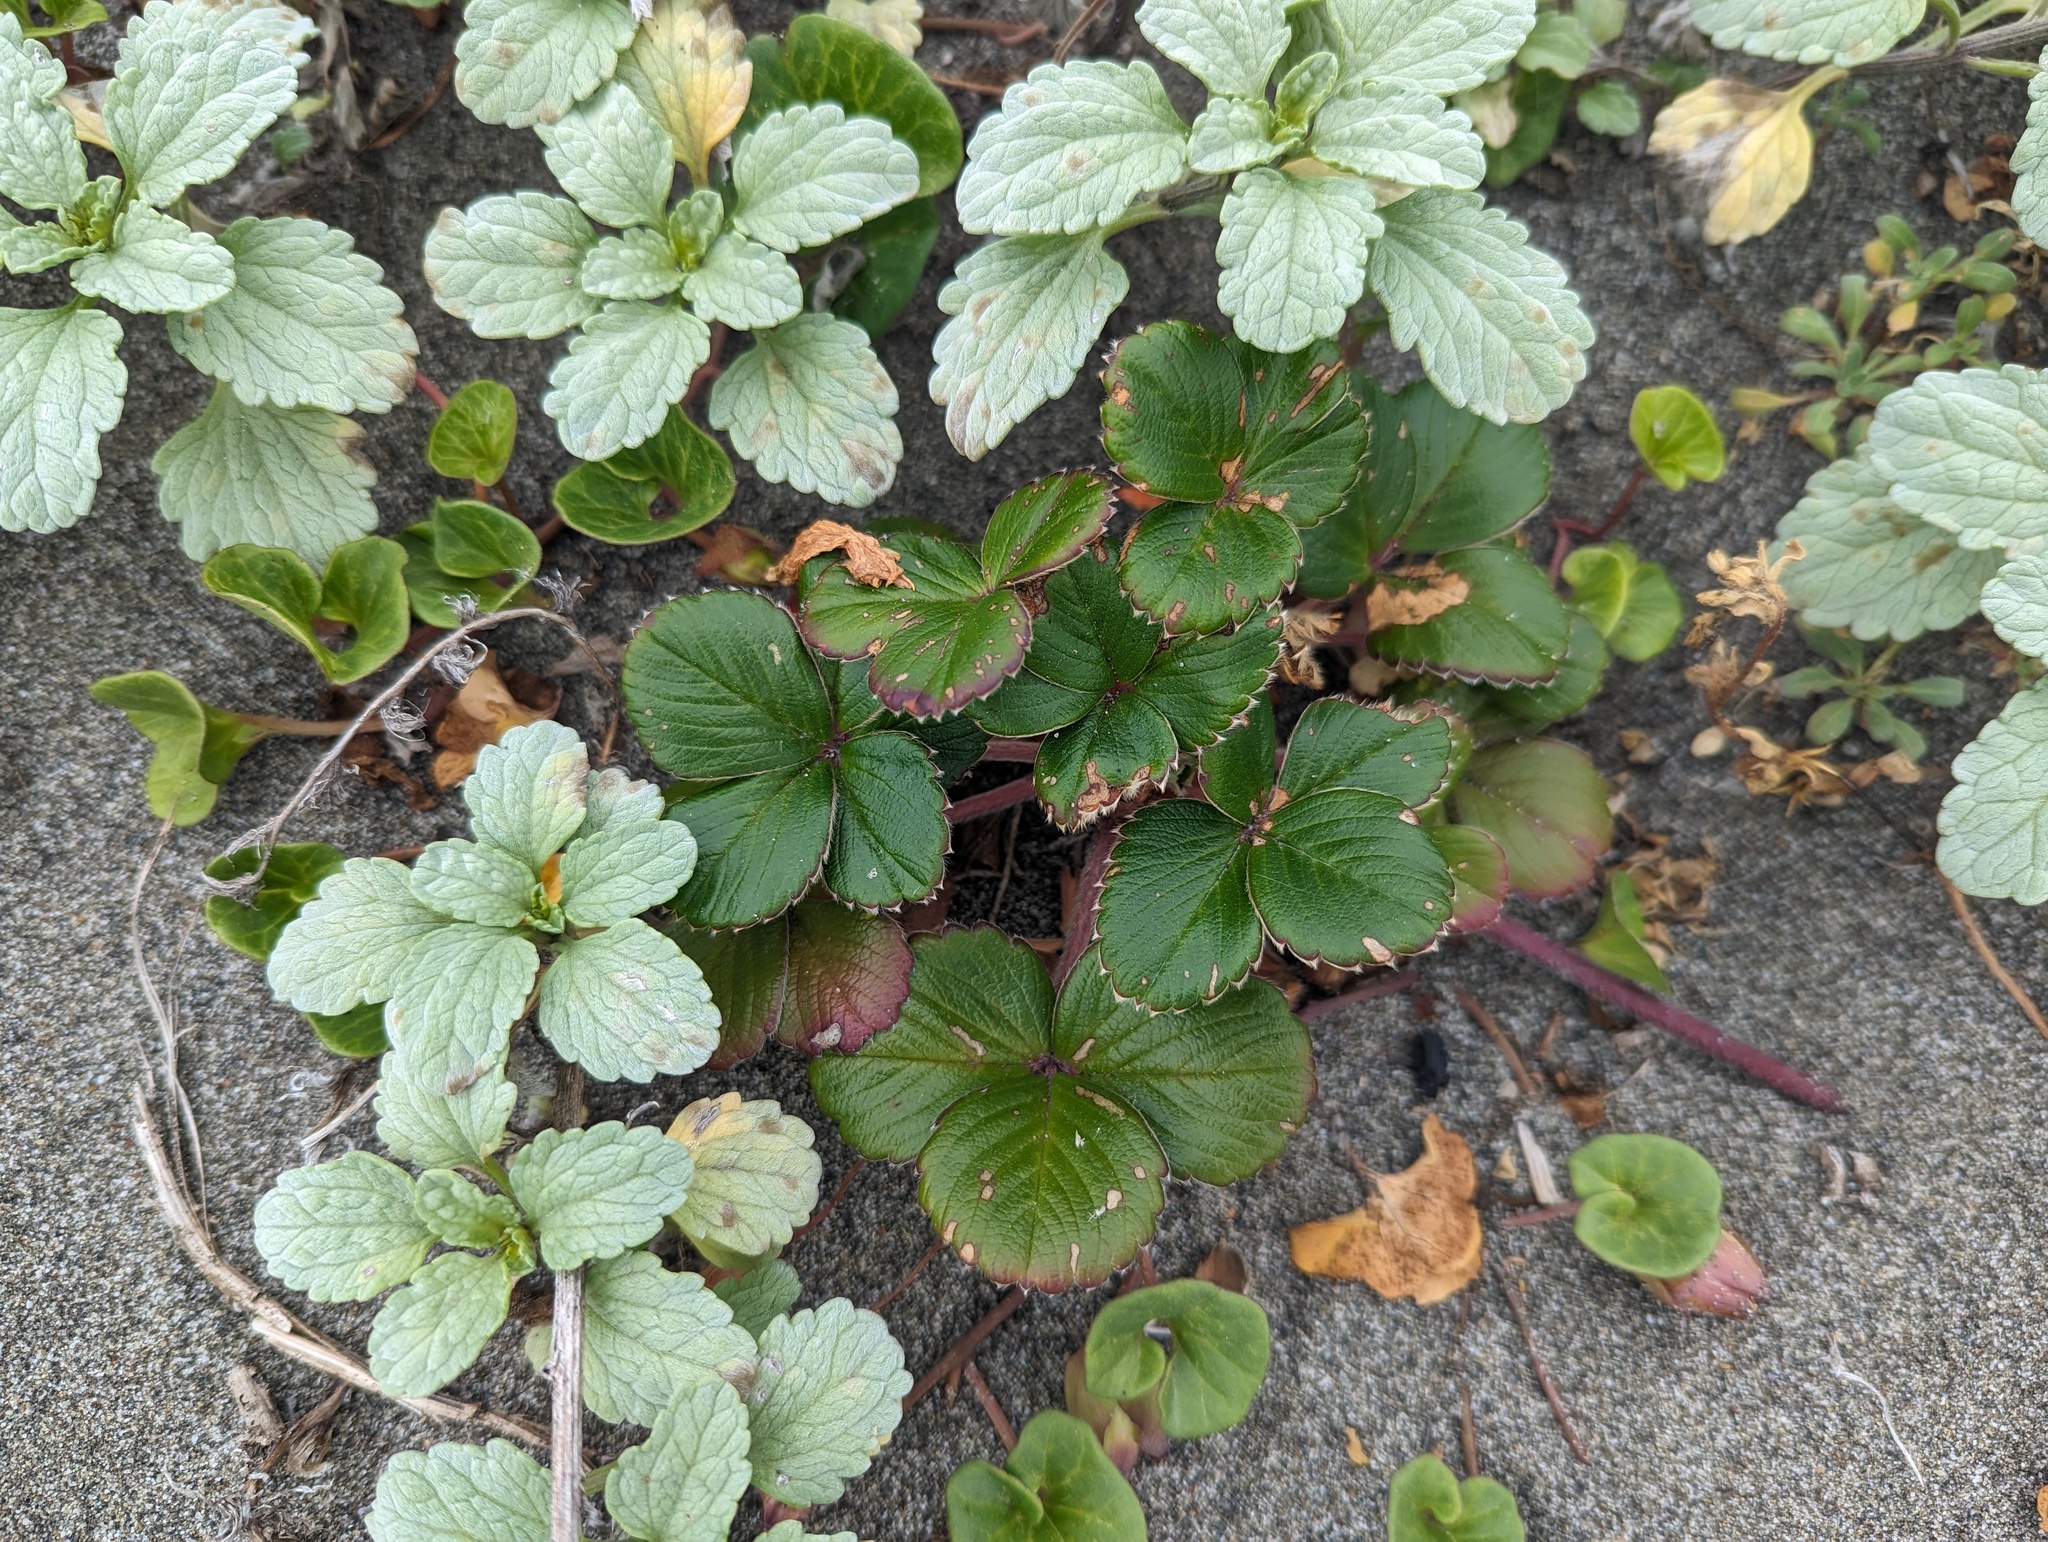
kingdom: Plantae
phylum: Tracheophyta
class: Magnoliopsida
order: Rosales
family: Rosaceae
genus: Fragaria
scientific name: Fragaria chiloensis
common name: Beach strawberry
